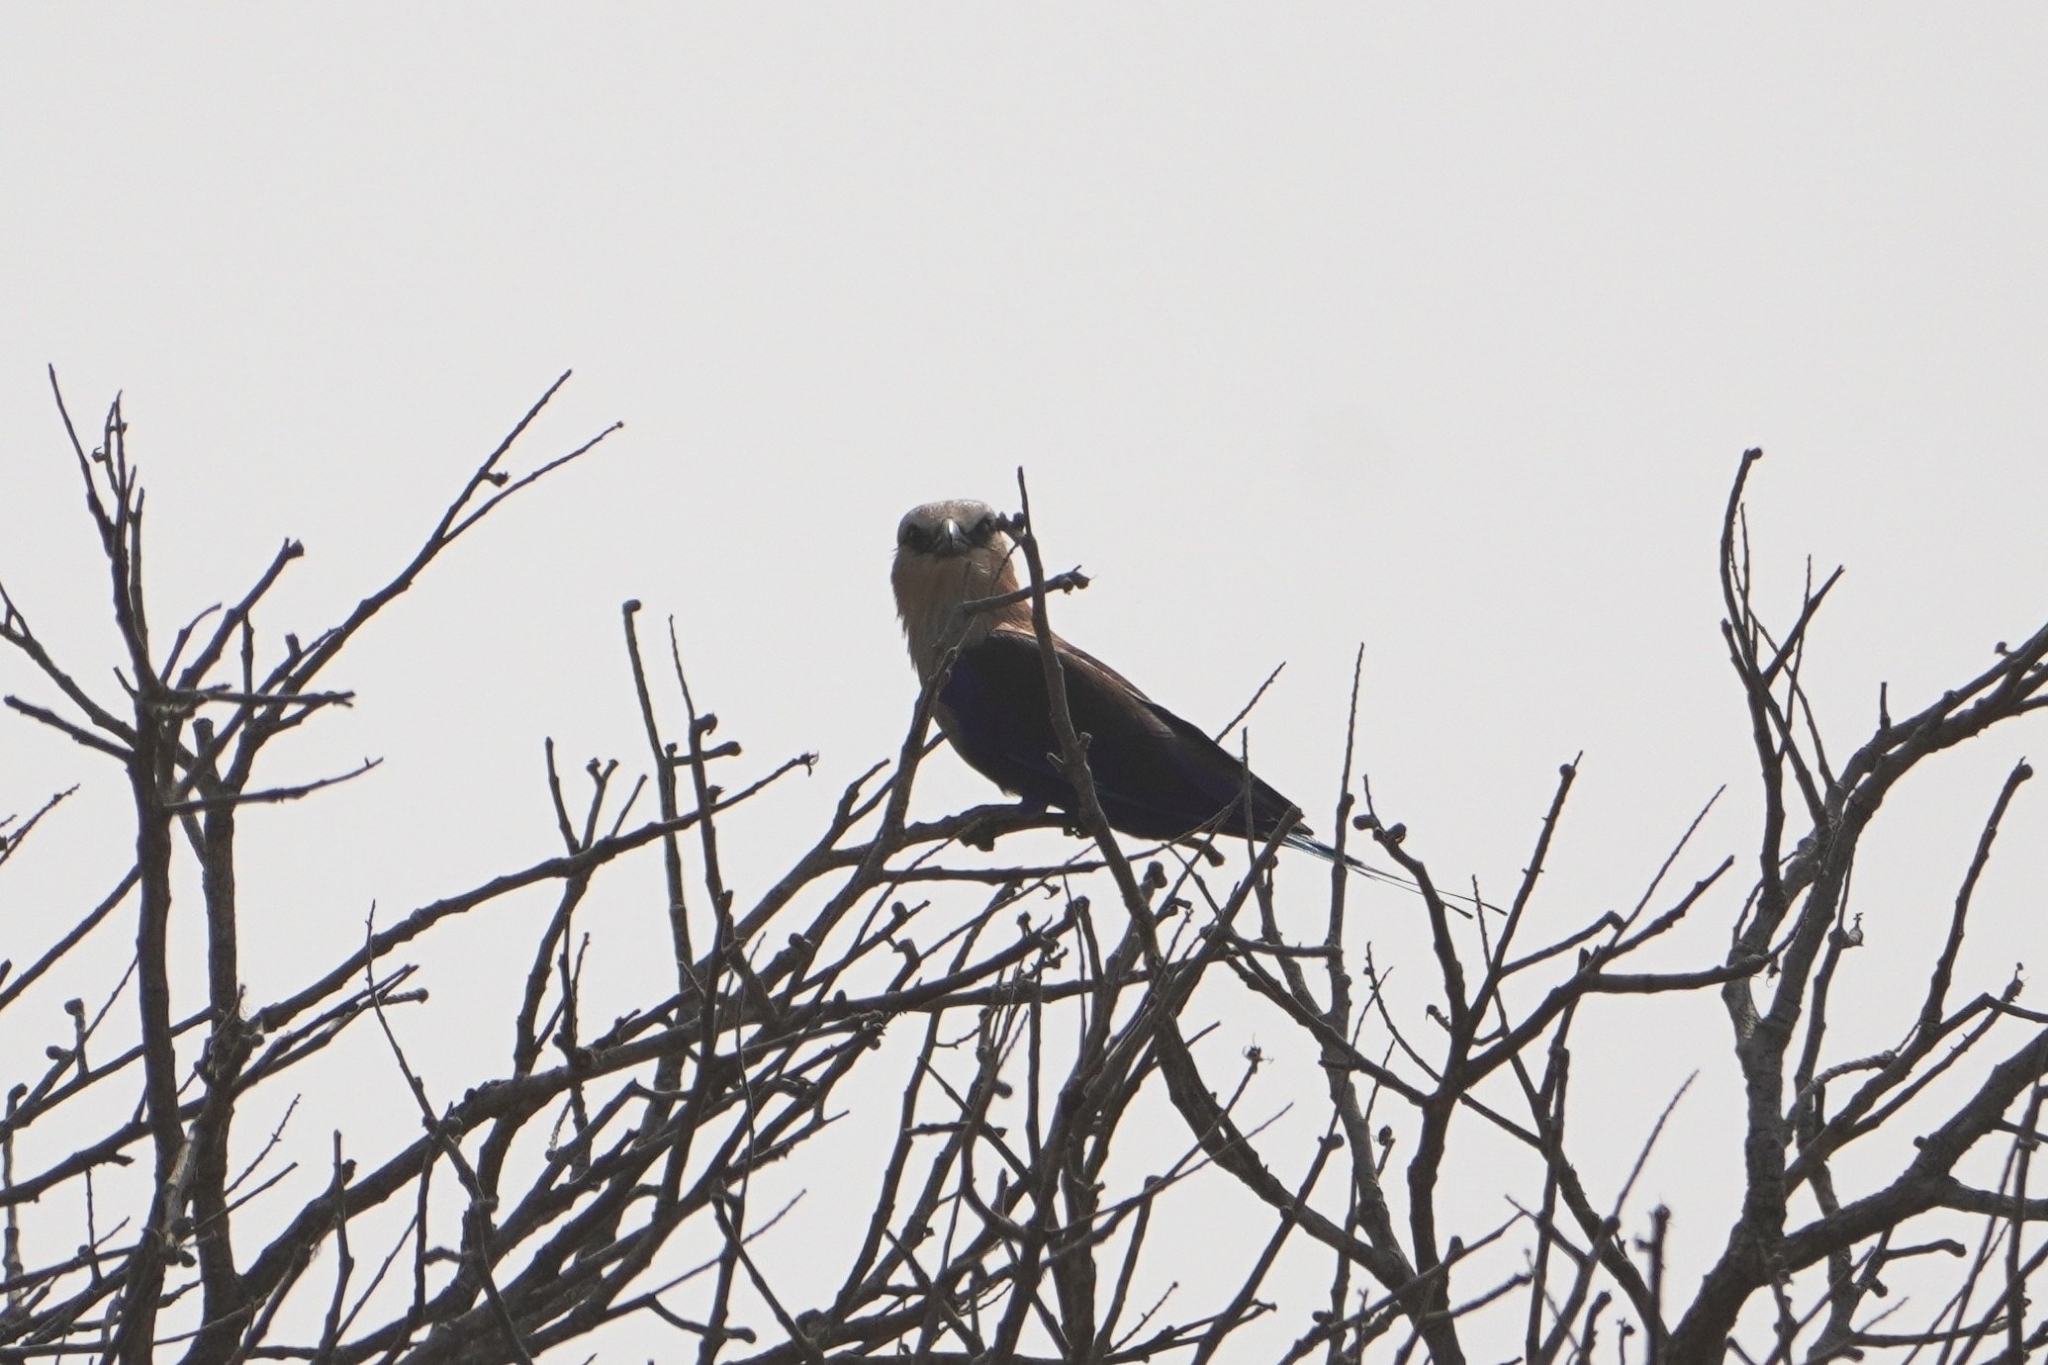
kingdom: Animalia
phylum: Chordata
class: Aves
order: Coraciiformes
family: Coraciidae
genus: Coracias
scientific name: Coracias cyanogaster
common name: Blue-bellied roller
